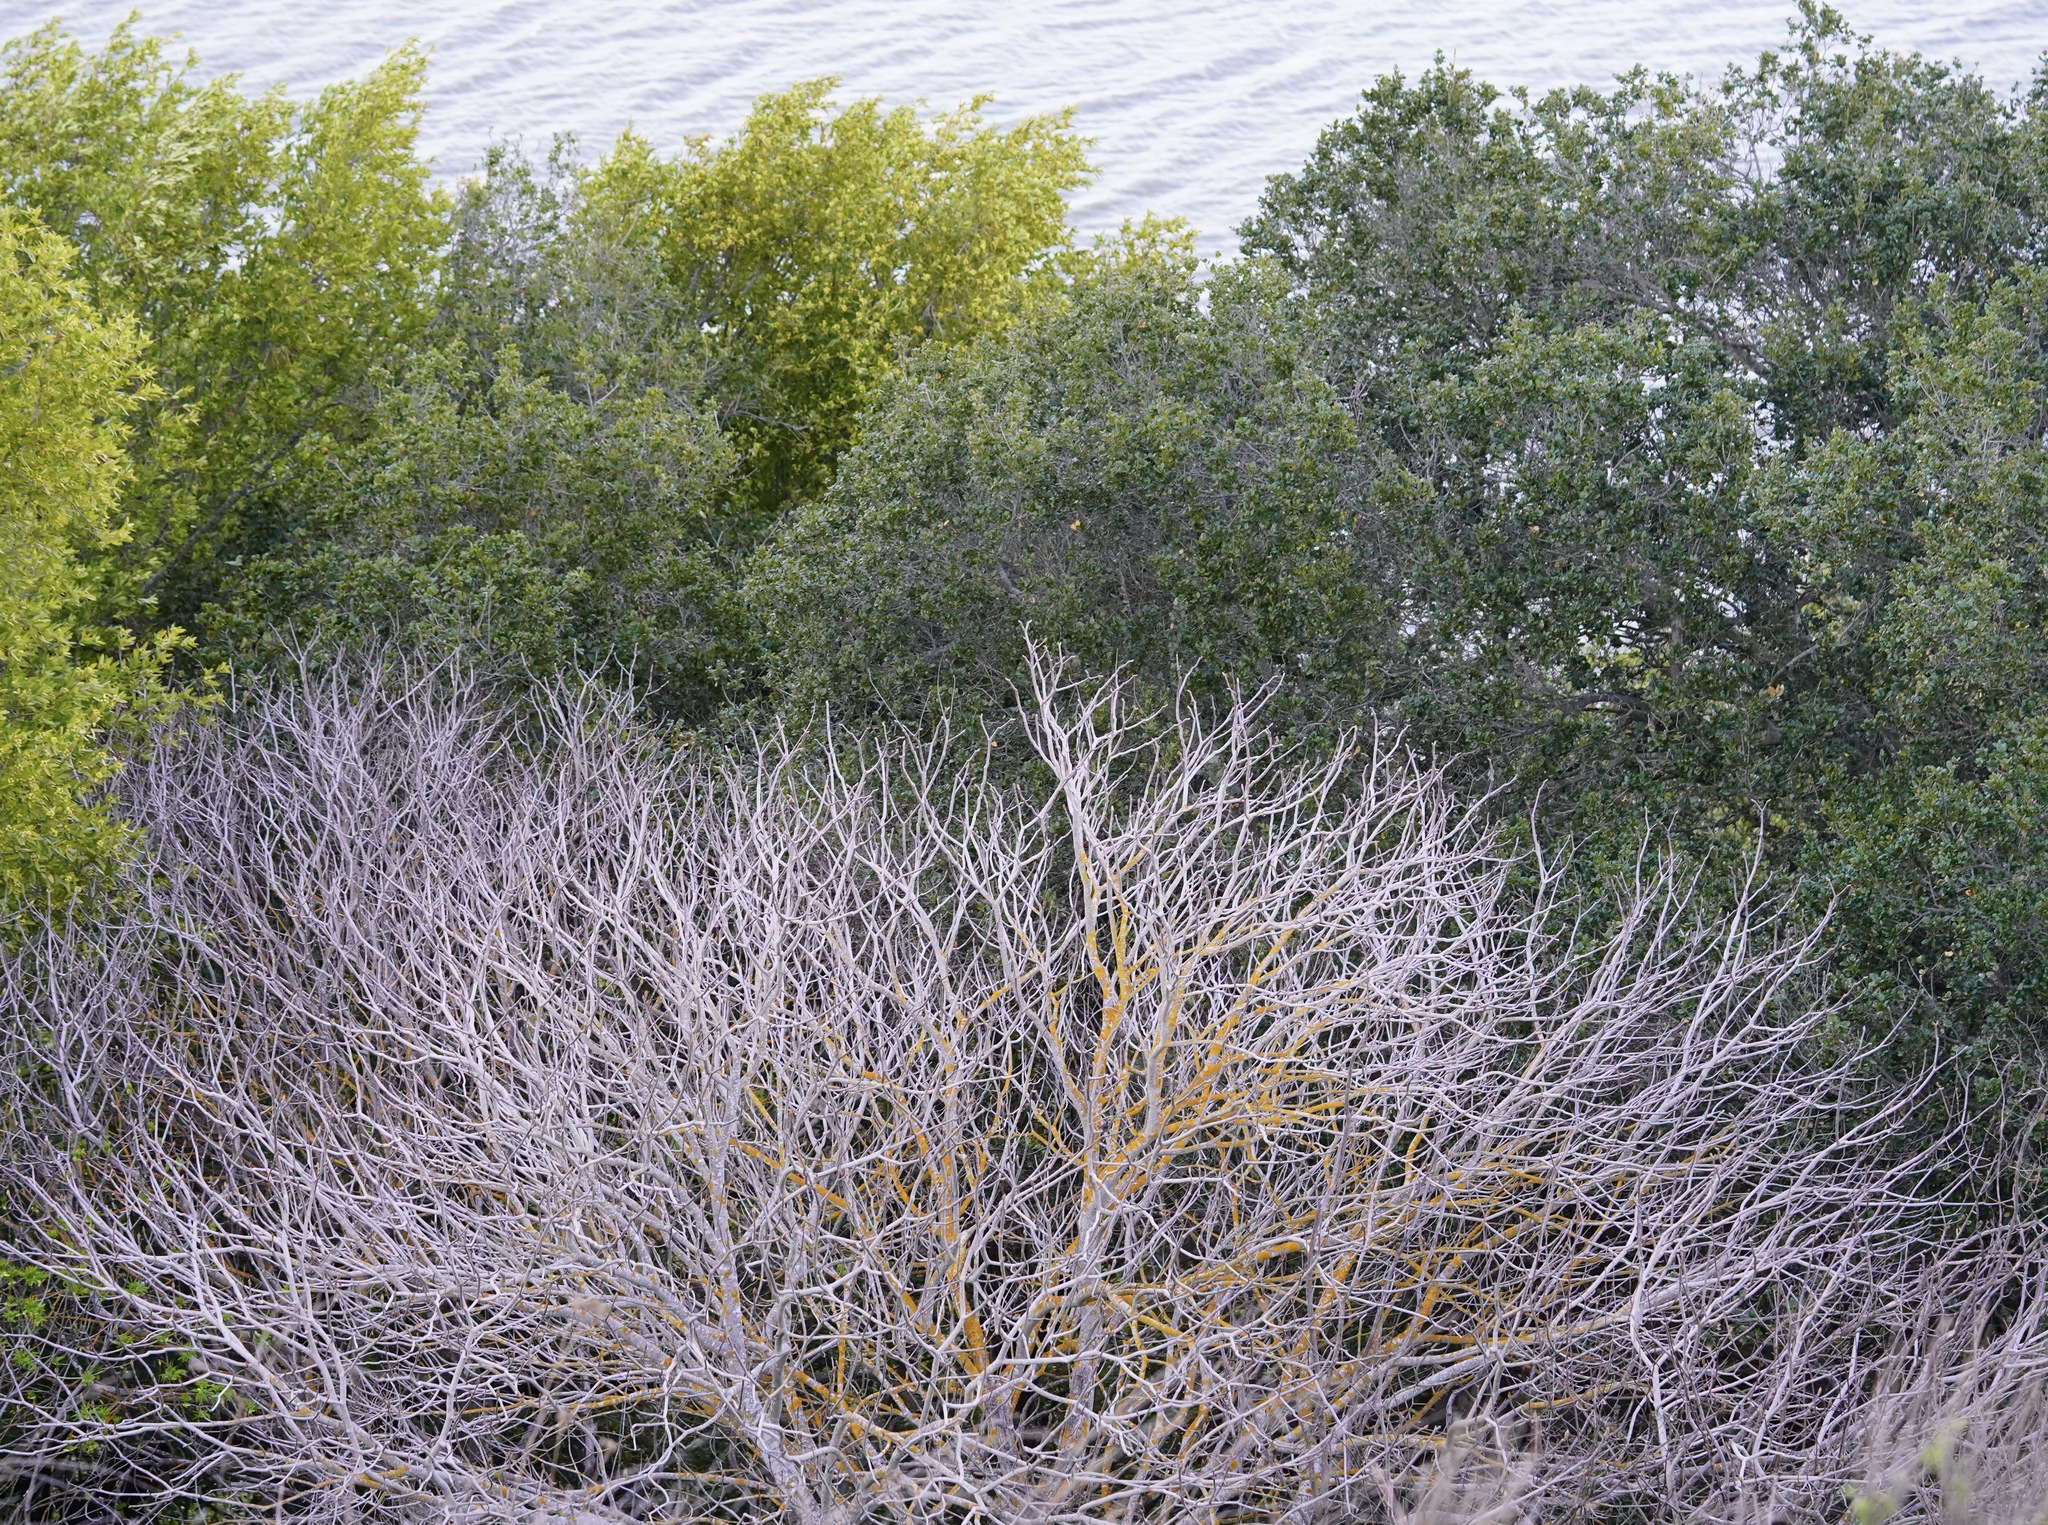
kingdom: Plantae
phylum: Tracheophyta
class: Magnoliopsida
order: Sapindales
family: Sapindaceae
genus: Aesculus
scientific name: Aesculus californica
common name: California buckeye
